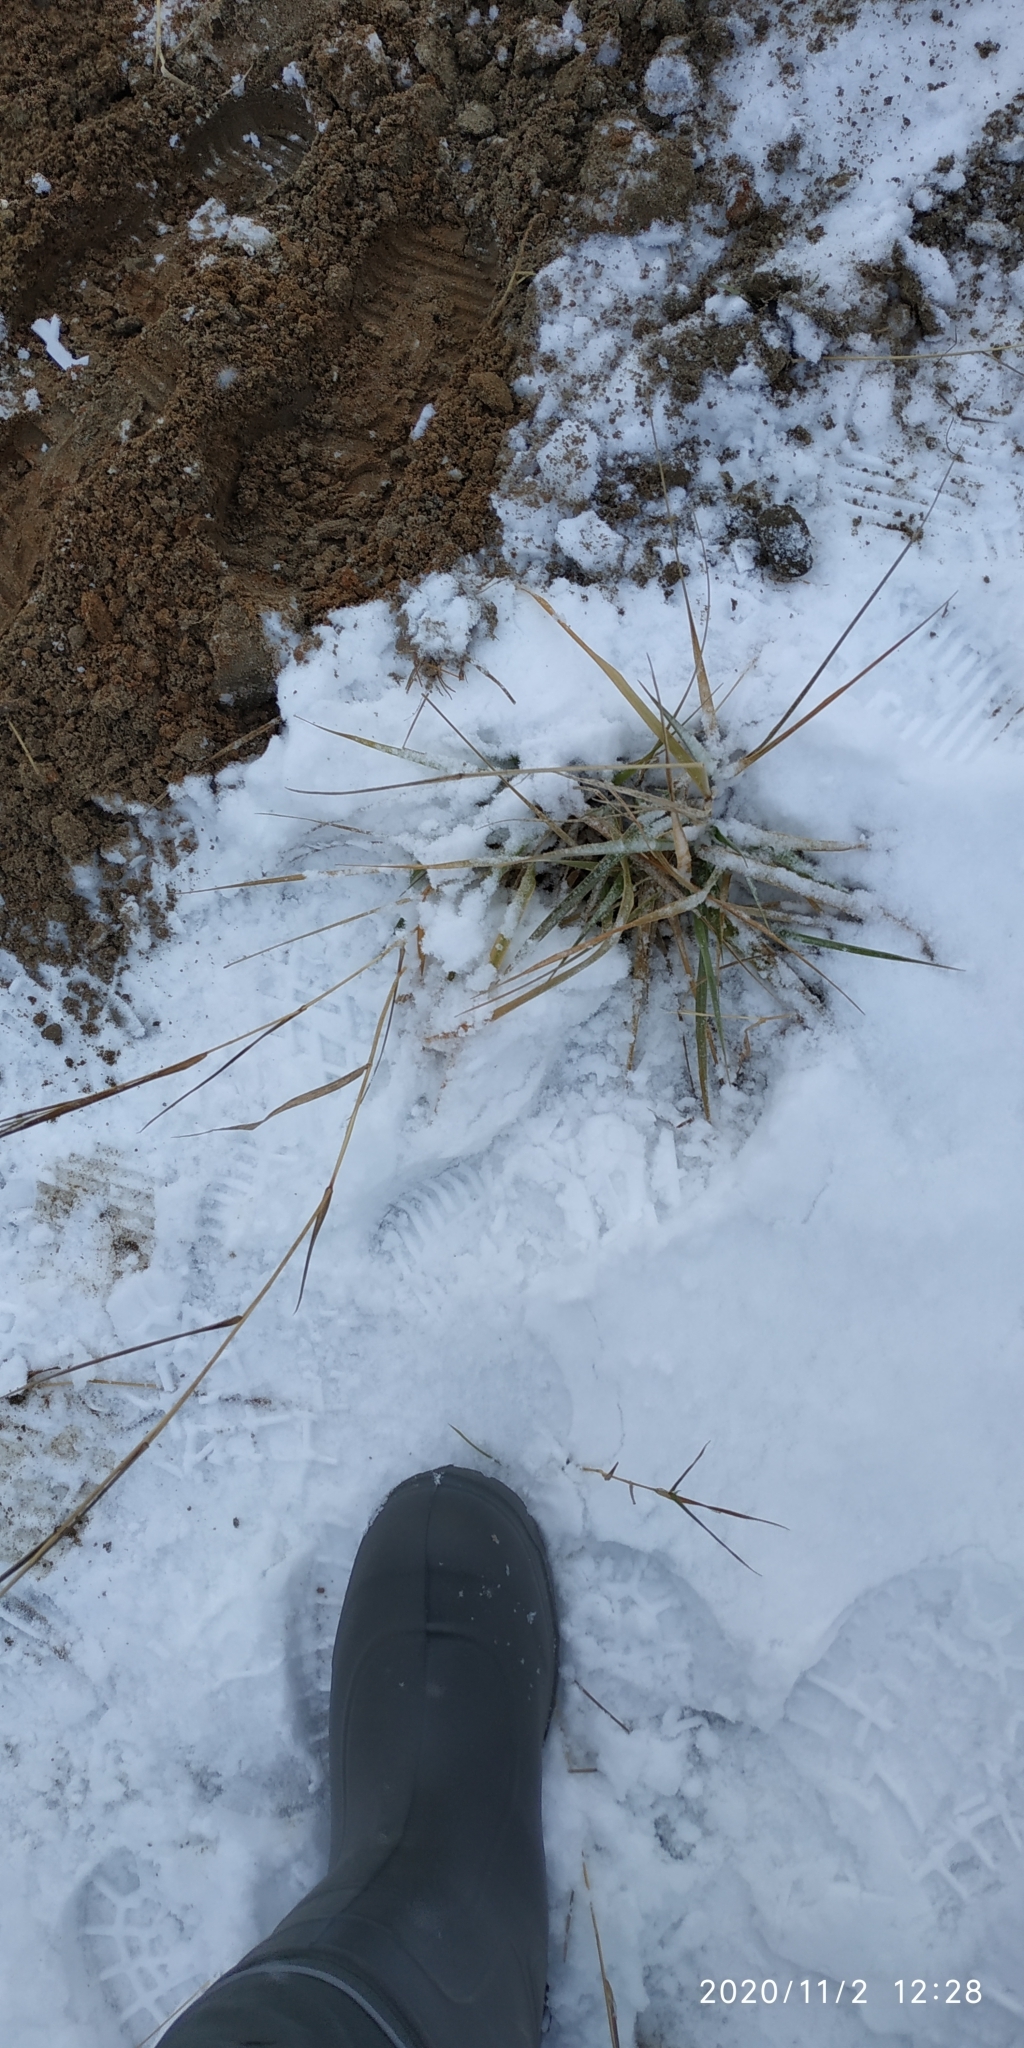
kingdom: Plantae
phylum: Tracheophyta
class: Liliopsida
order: Poales
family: Poaceae
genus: Elymus
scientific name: Elymus repens
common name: Quackgrass
